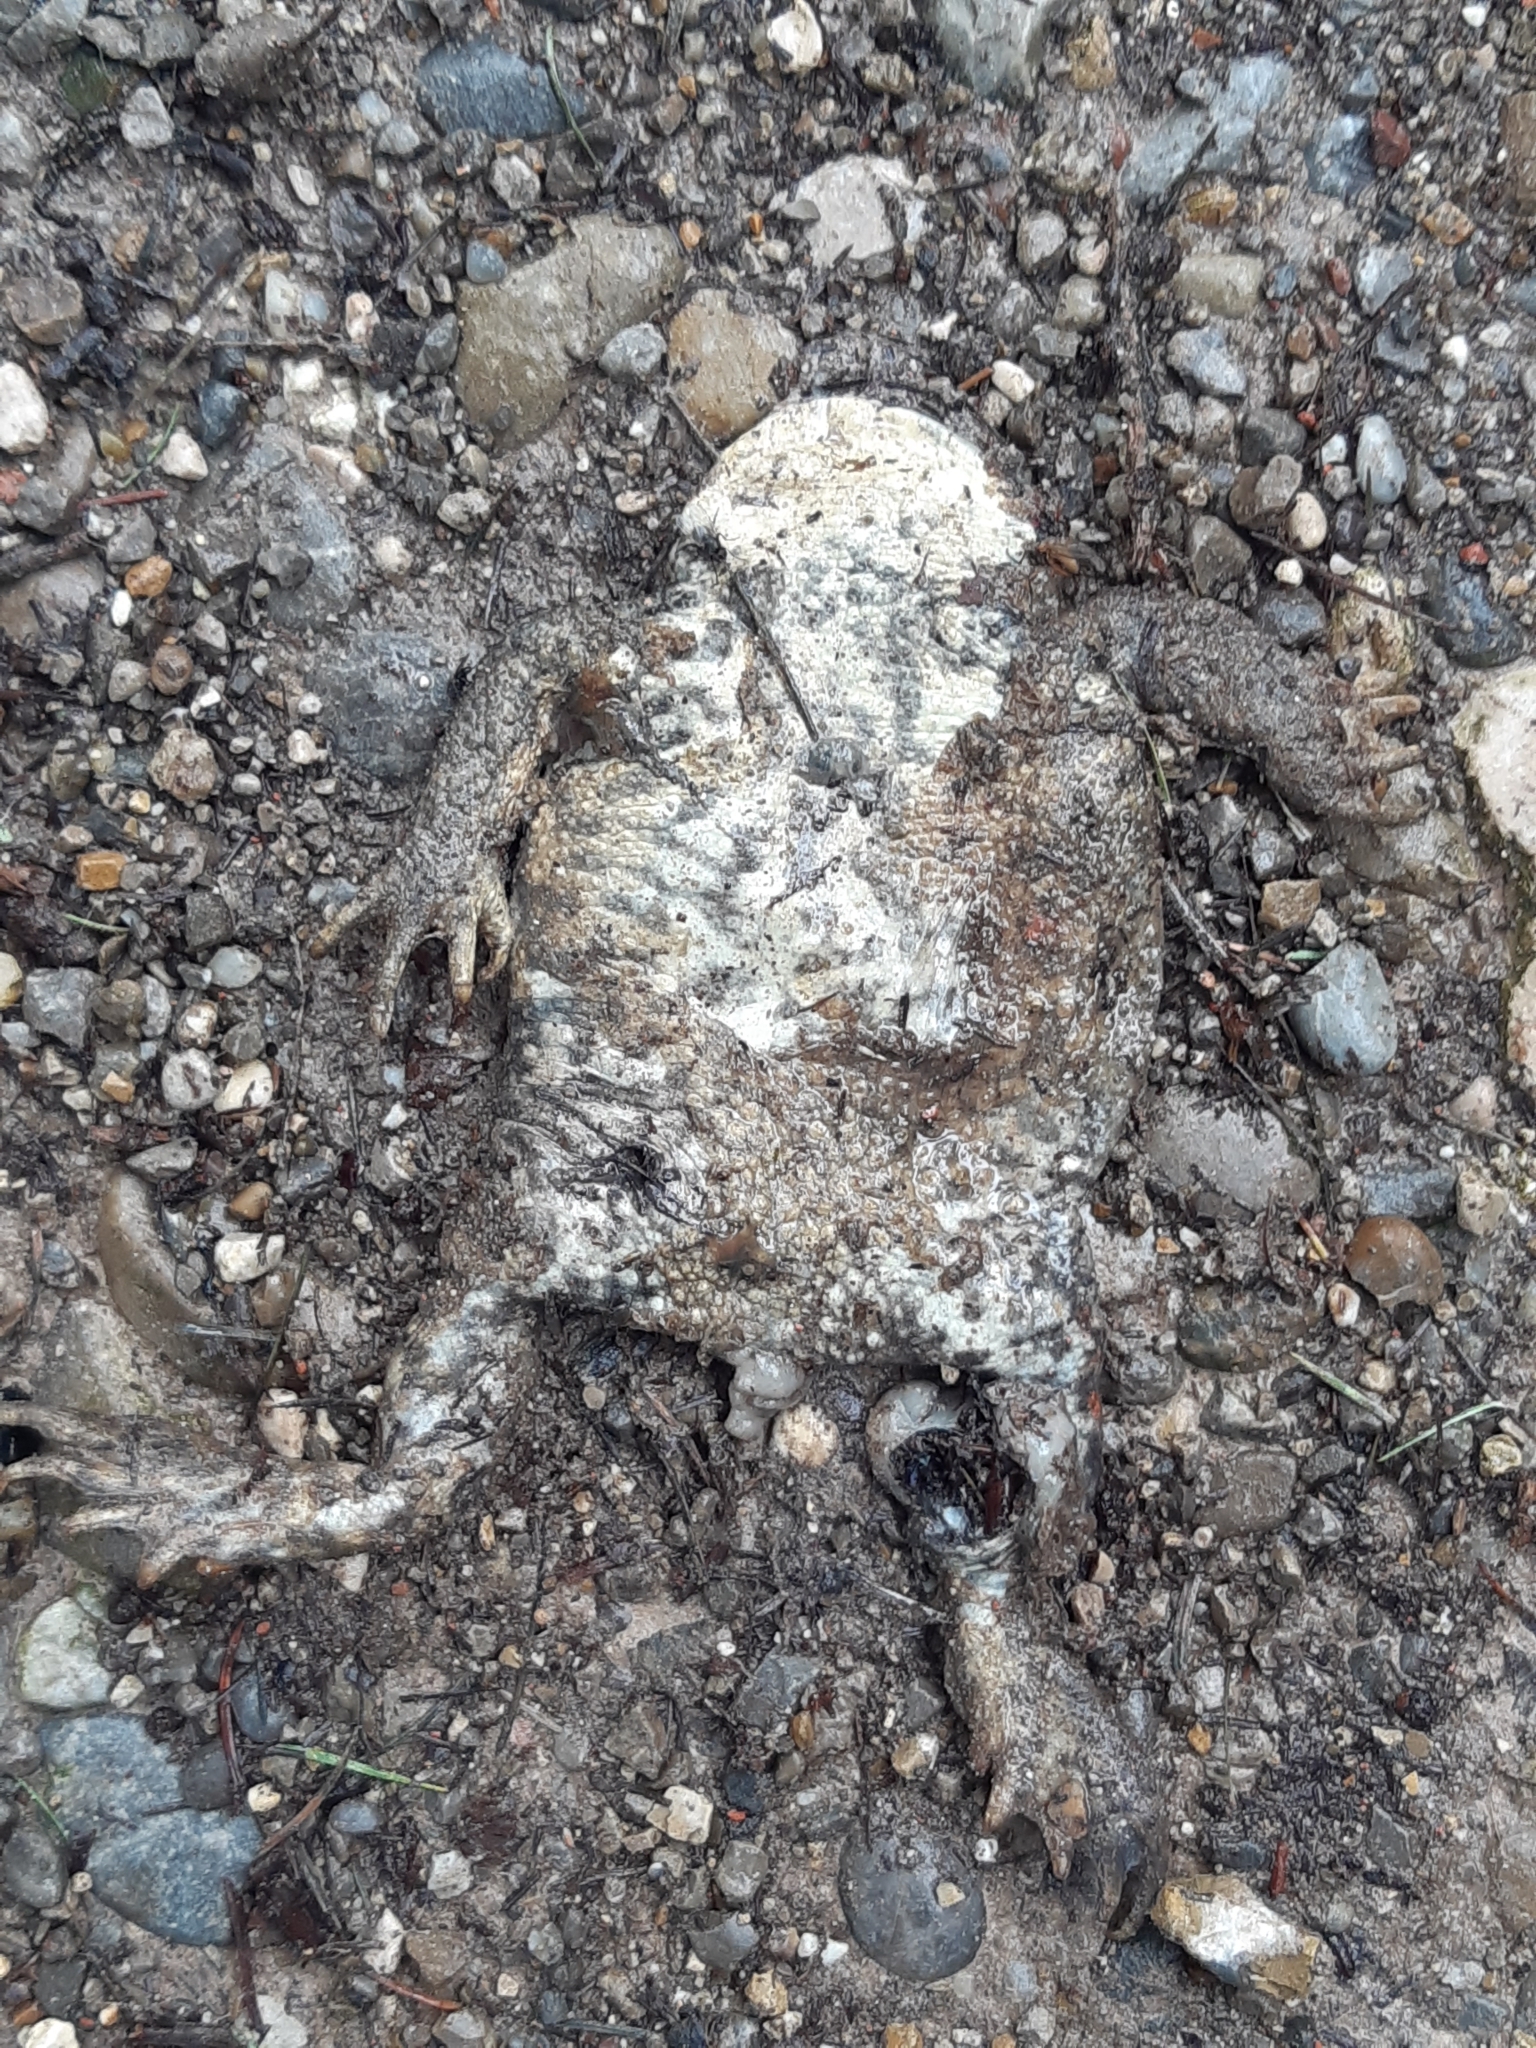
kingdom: Animalia
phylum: Chordata
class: Amphibia
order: Anura
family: Bufonidae
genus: Bufo
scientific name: Bufo bufo
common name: Common toad
